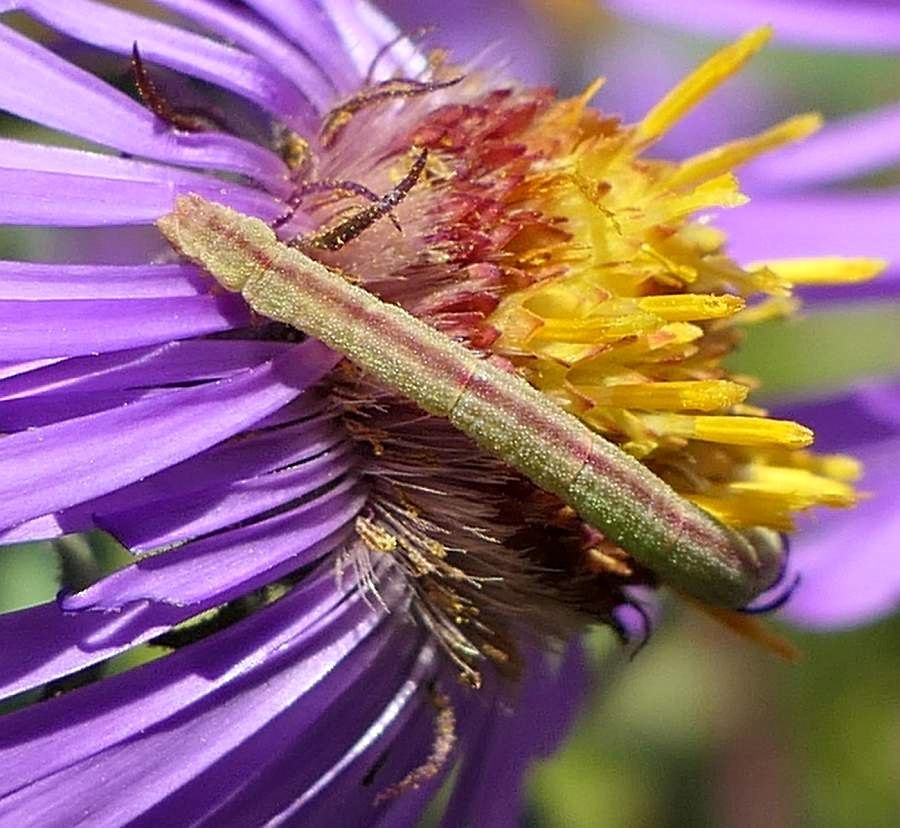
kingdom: Animalia
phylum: Arthropoda
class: Insecta
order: Lepidoptera
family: Geometridae
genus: Chlorochlamys
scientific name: Chlorochlamys chloroleucaria
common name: Blackberry looper
